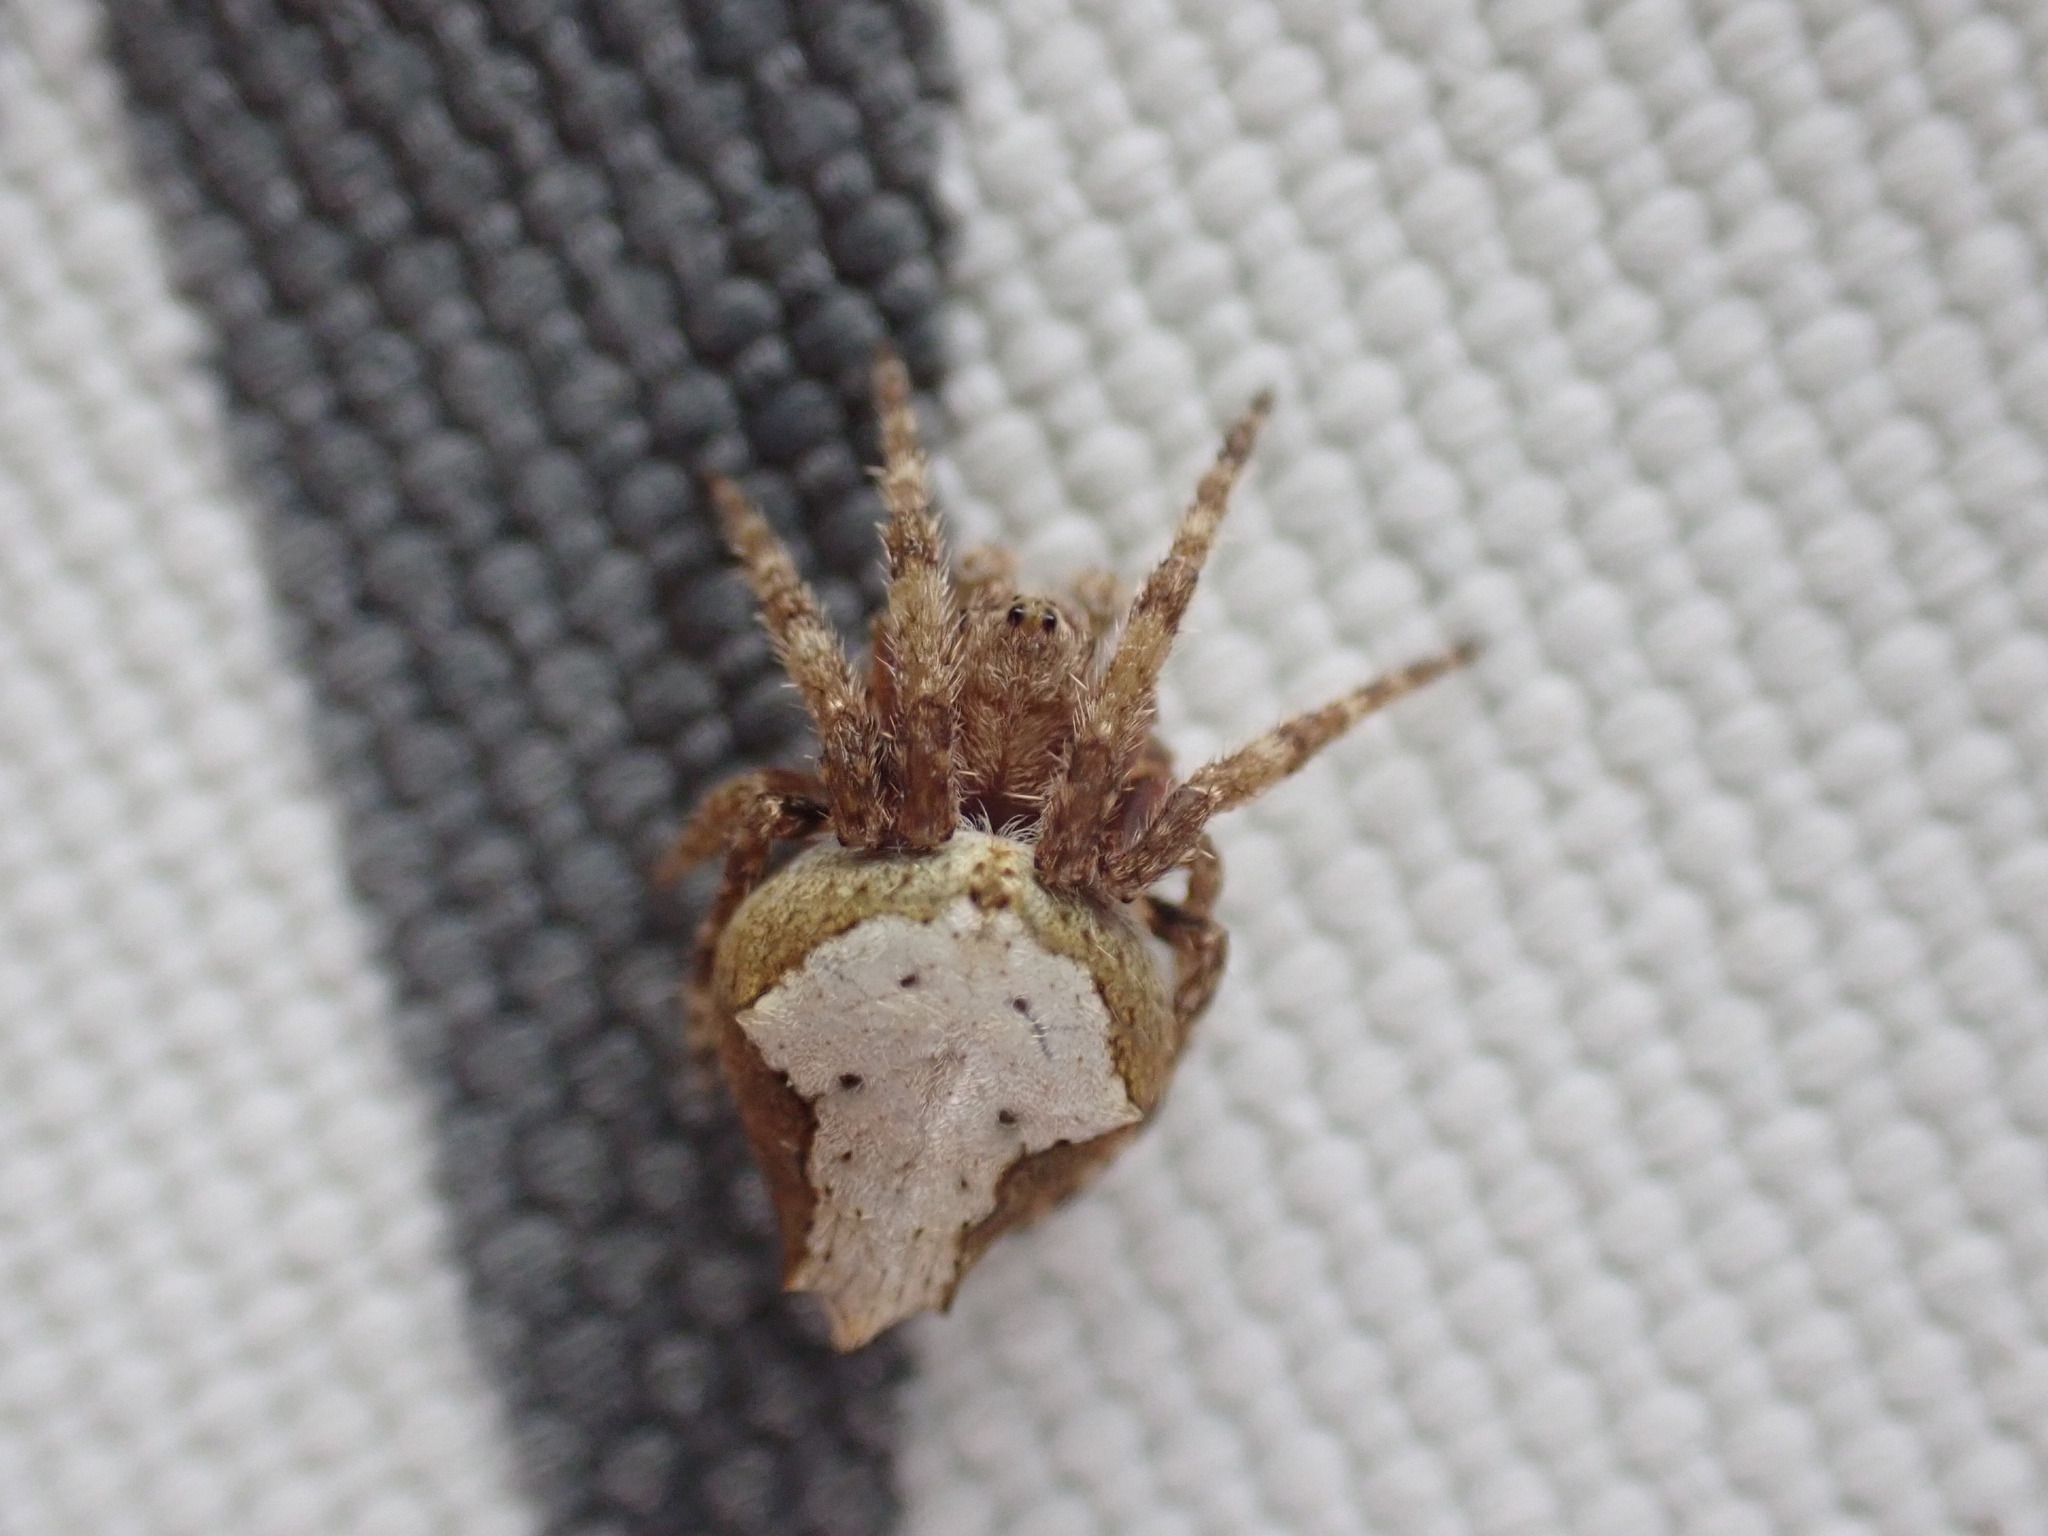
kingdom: Animalia
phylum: Arthropoda
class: Arachnida
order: Araneae
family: Araneidae
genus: Eriophora
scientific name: Eriophora pustulosa
